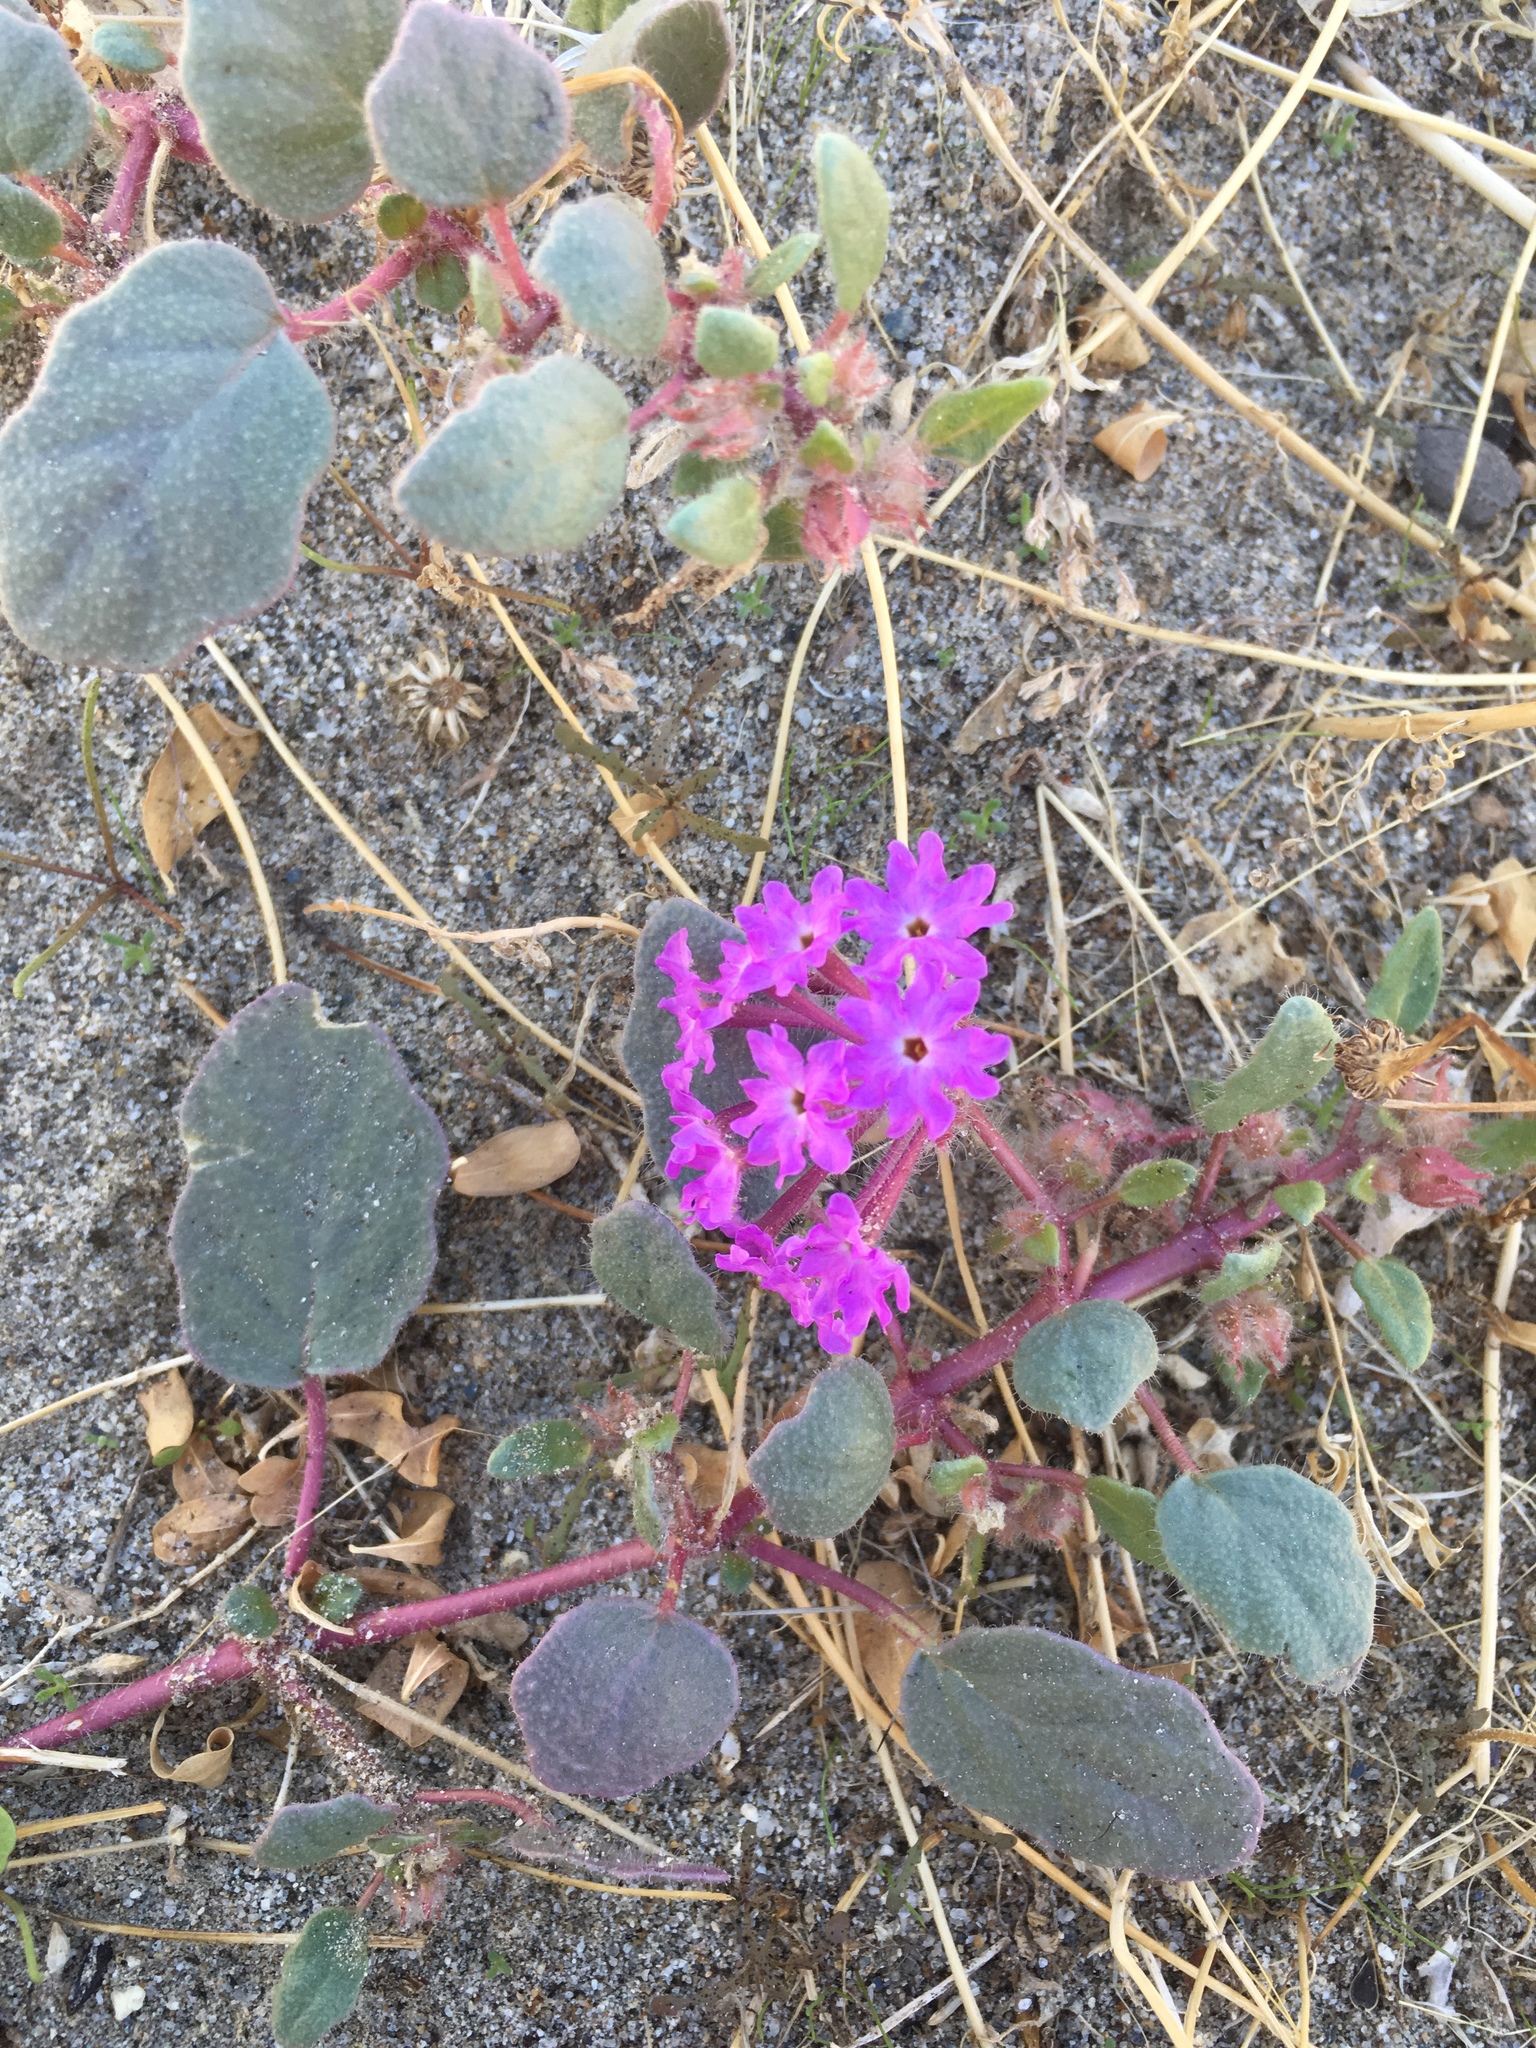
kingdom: Plantae
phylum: Tracheophyta
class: Magnoliopsida
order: Caryophyllales
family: Nyctaginaceae
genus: Abronia
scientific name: Abronia villosa
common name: Desert sand-verbena
